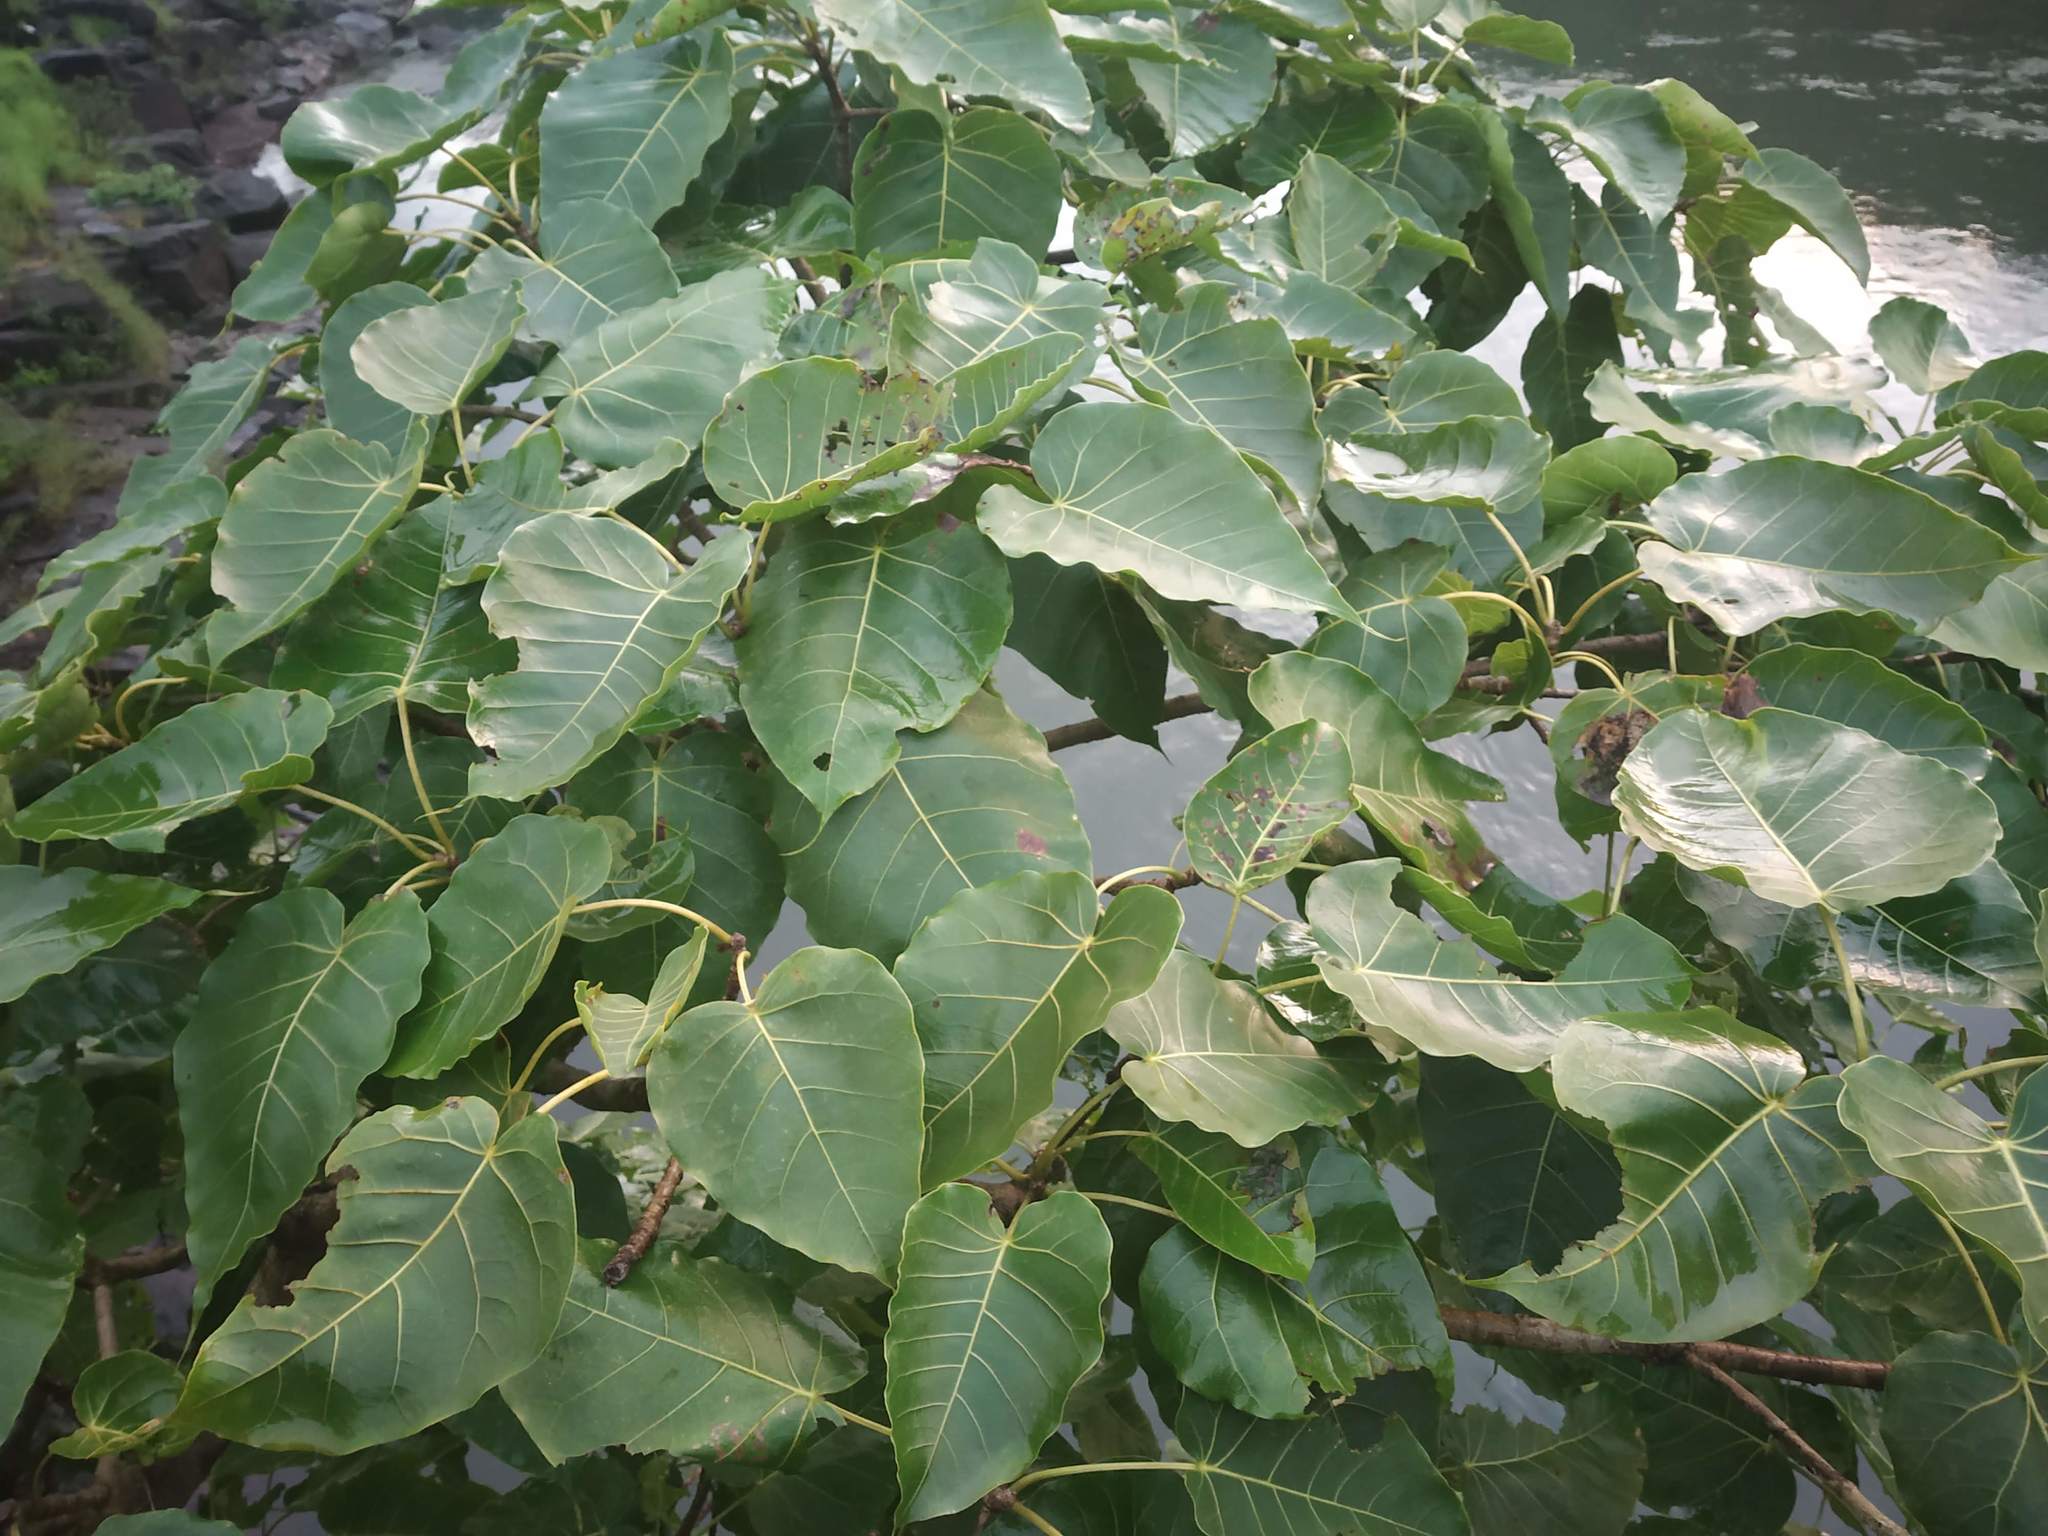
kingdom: Plantae
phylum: Tracheophyta
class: Magnoliopsida
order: Rosales
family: Moraceae
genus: Ficus
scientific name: Ficus arnottiana
